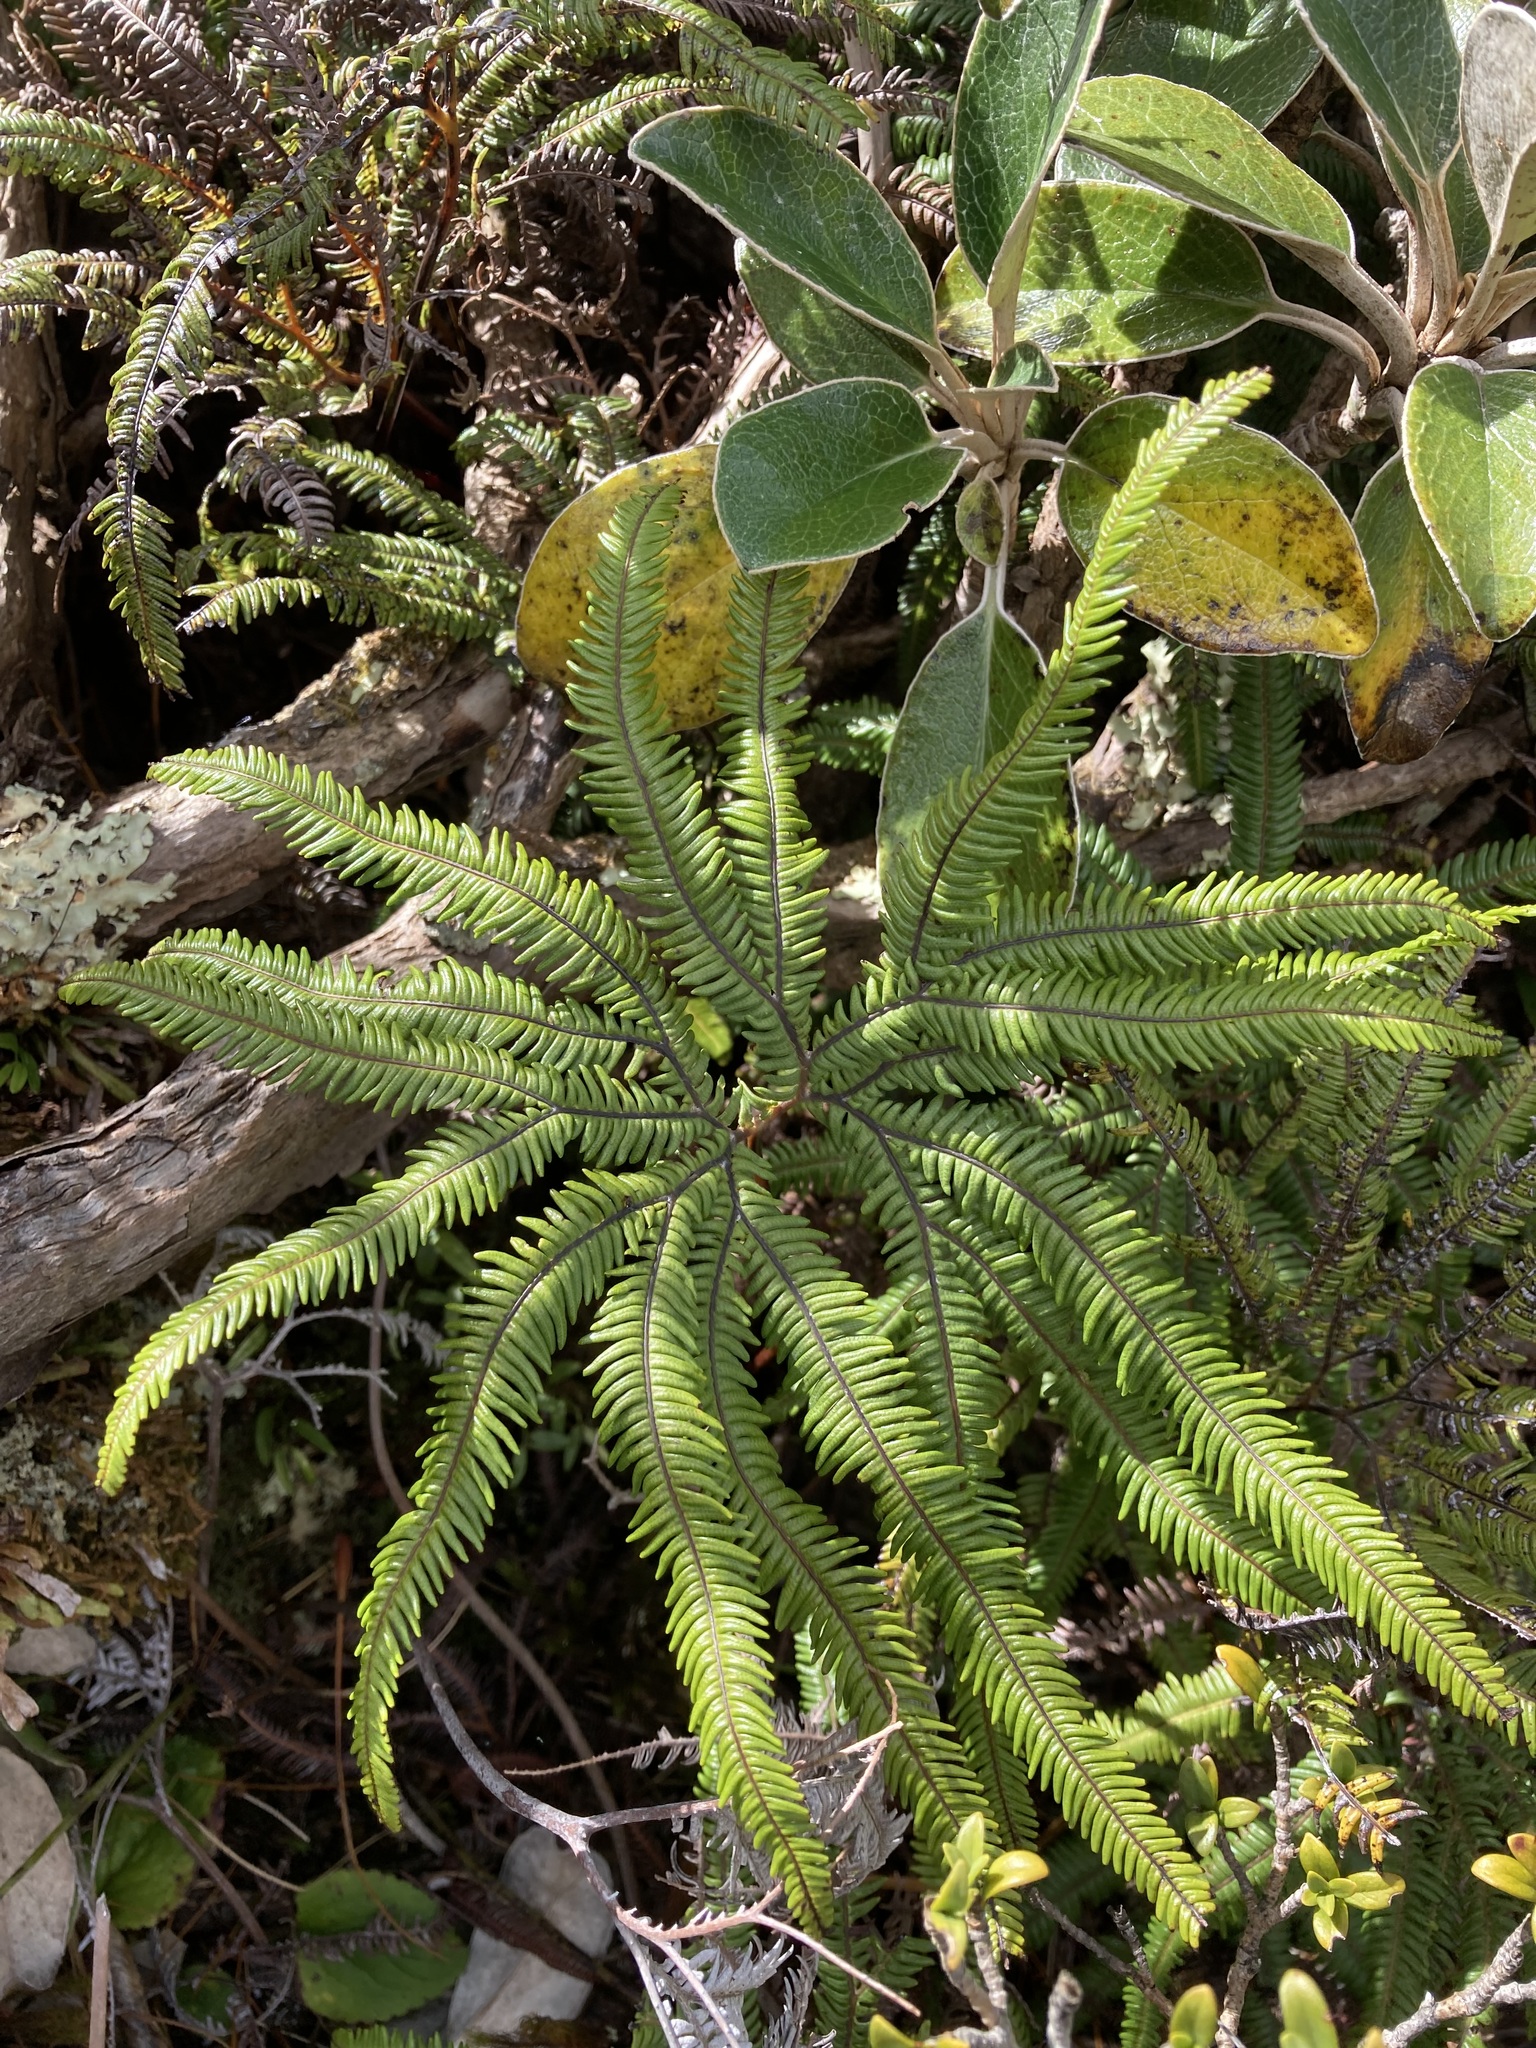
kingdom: Plantae
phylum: Tracheophyta
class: Polypodiopsida
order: Gleicheniales
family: Gleicheniaceae
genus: Sticherus
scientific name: Sticherus cunninghamii
